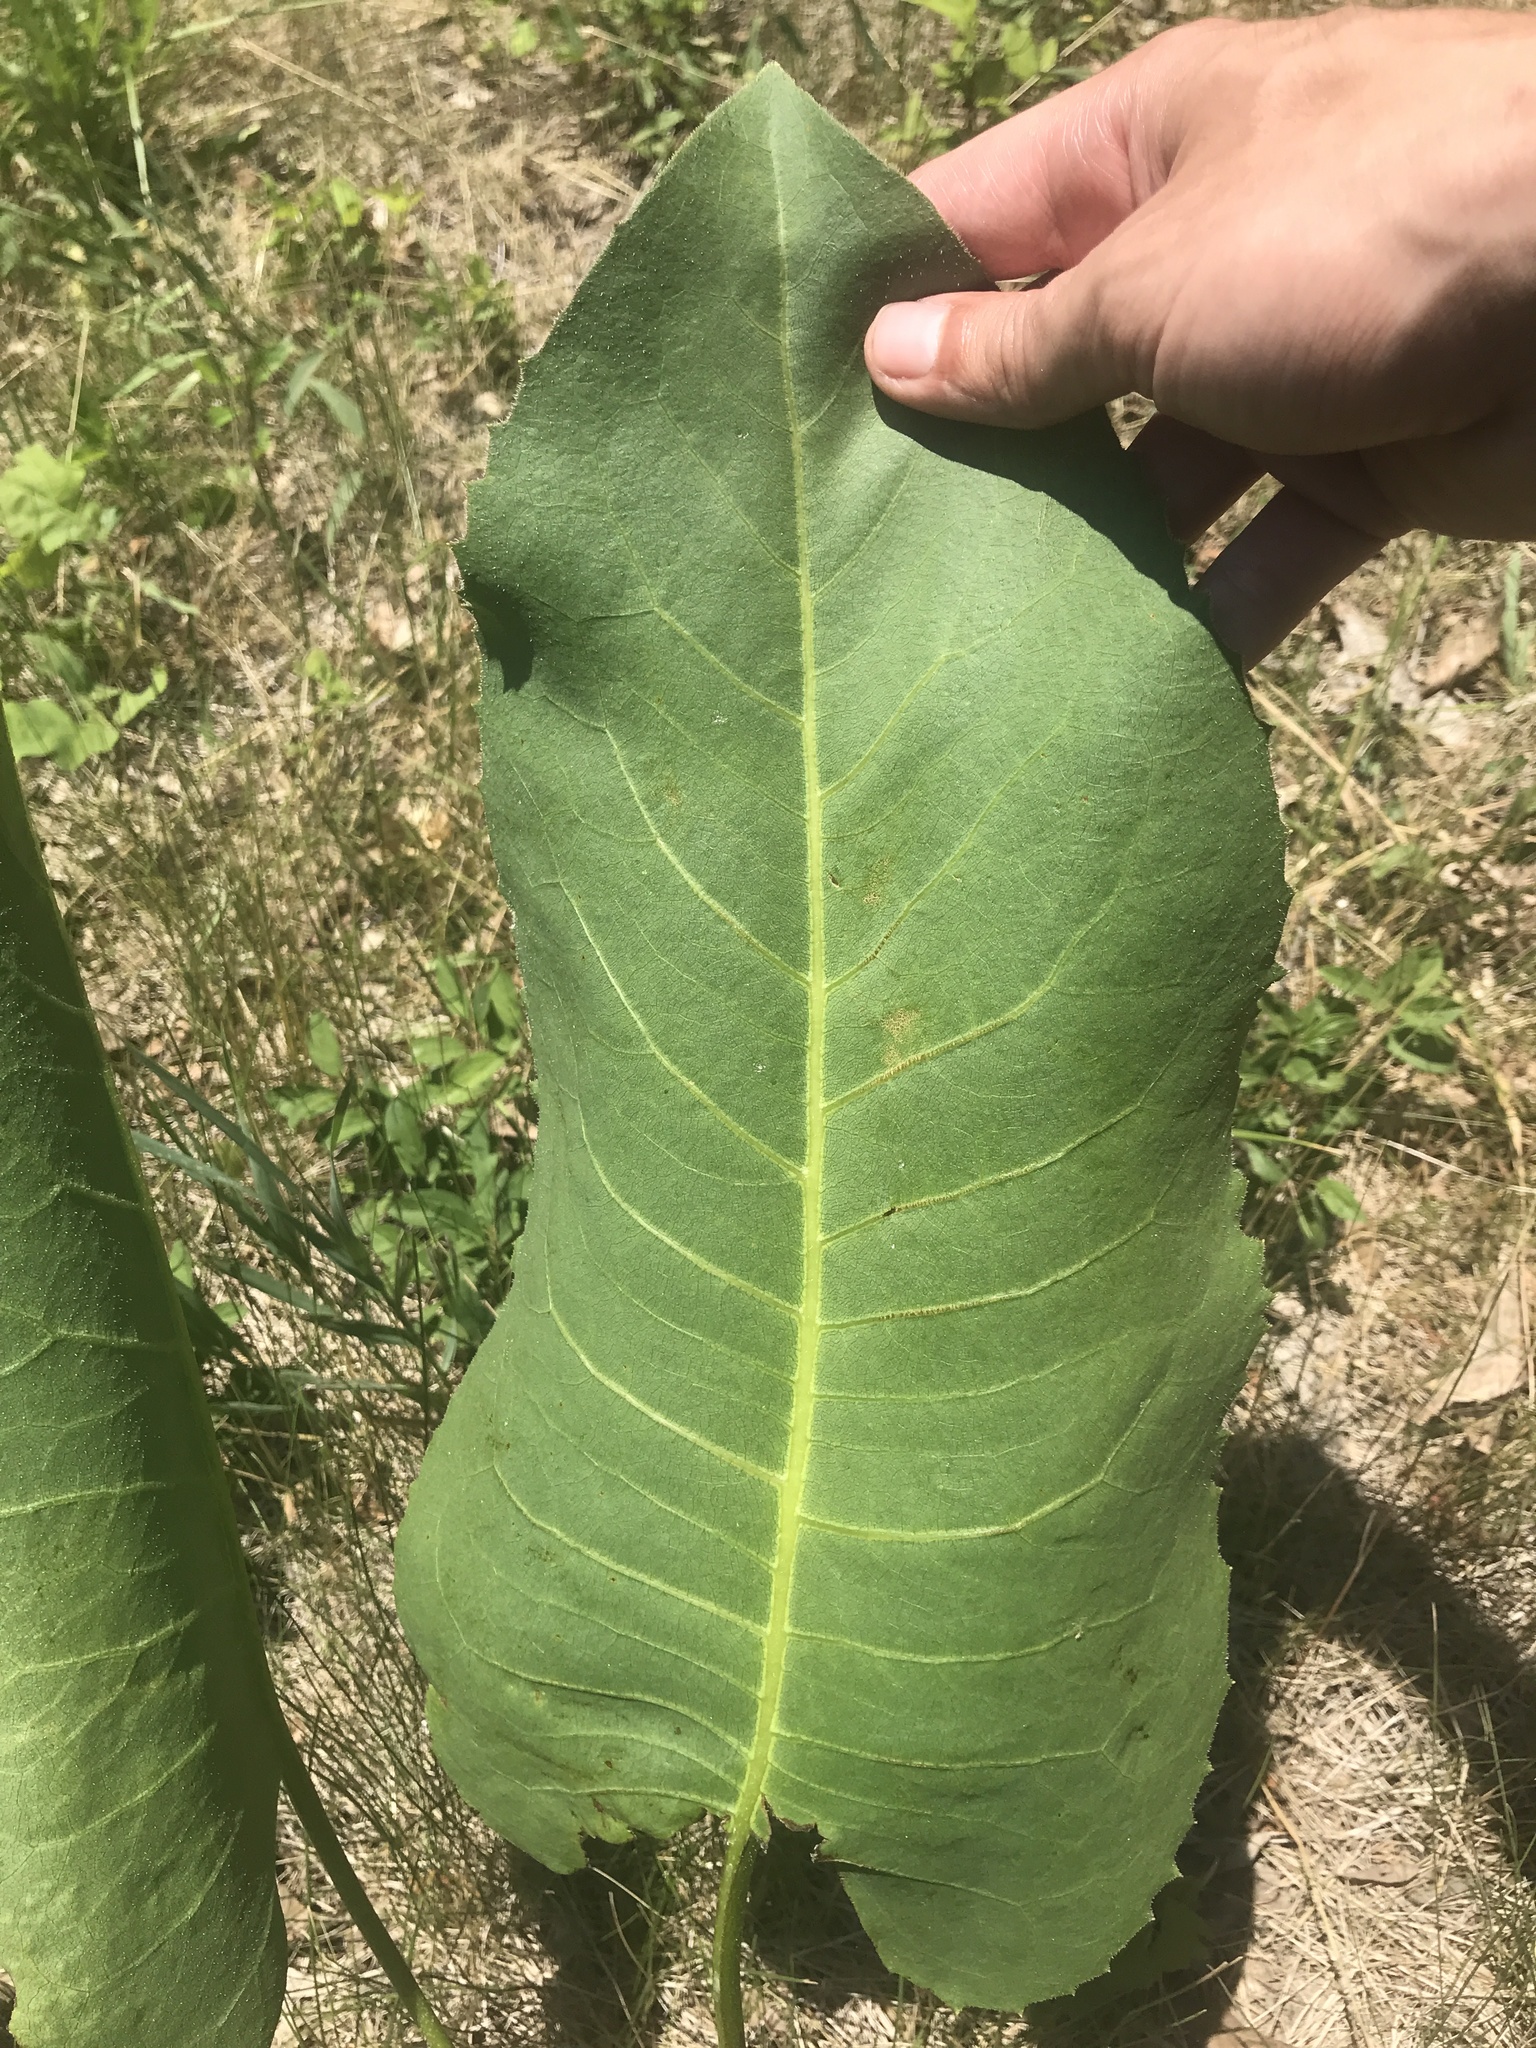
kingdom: Plantae
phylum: Tracheophyta
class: Magnoliopsida
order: Asterales
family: Asteraceae
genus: Silphium
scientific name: Silphium terebinthinaceum
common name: Basal-leaf rosinweed
